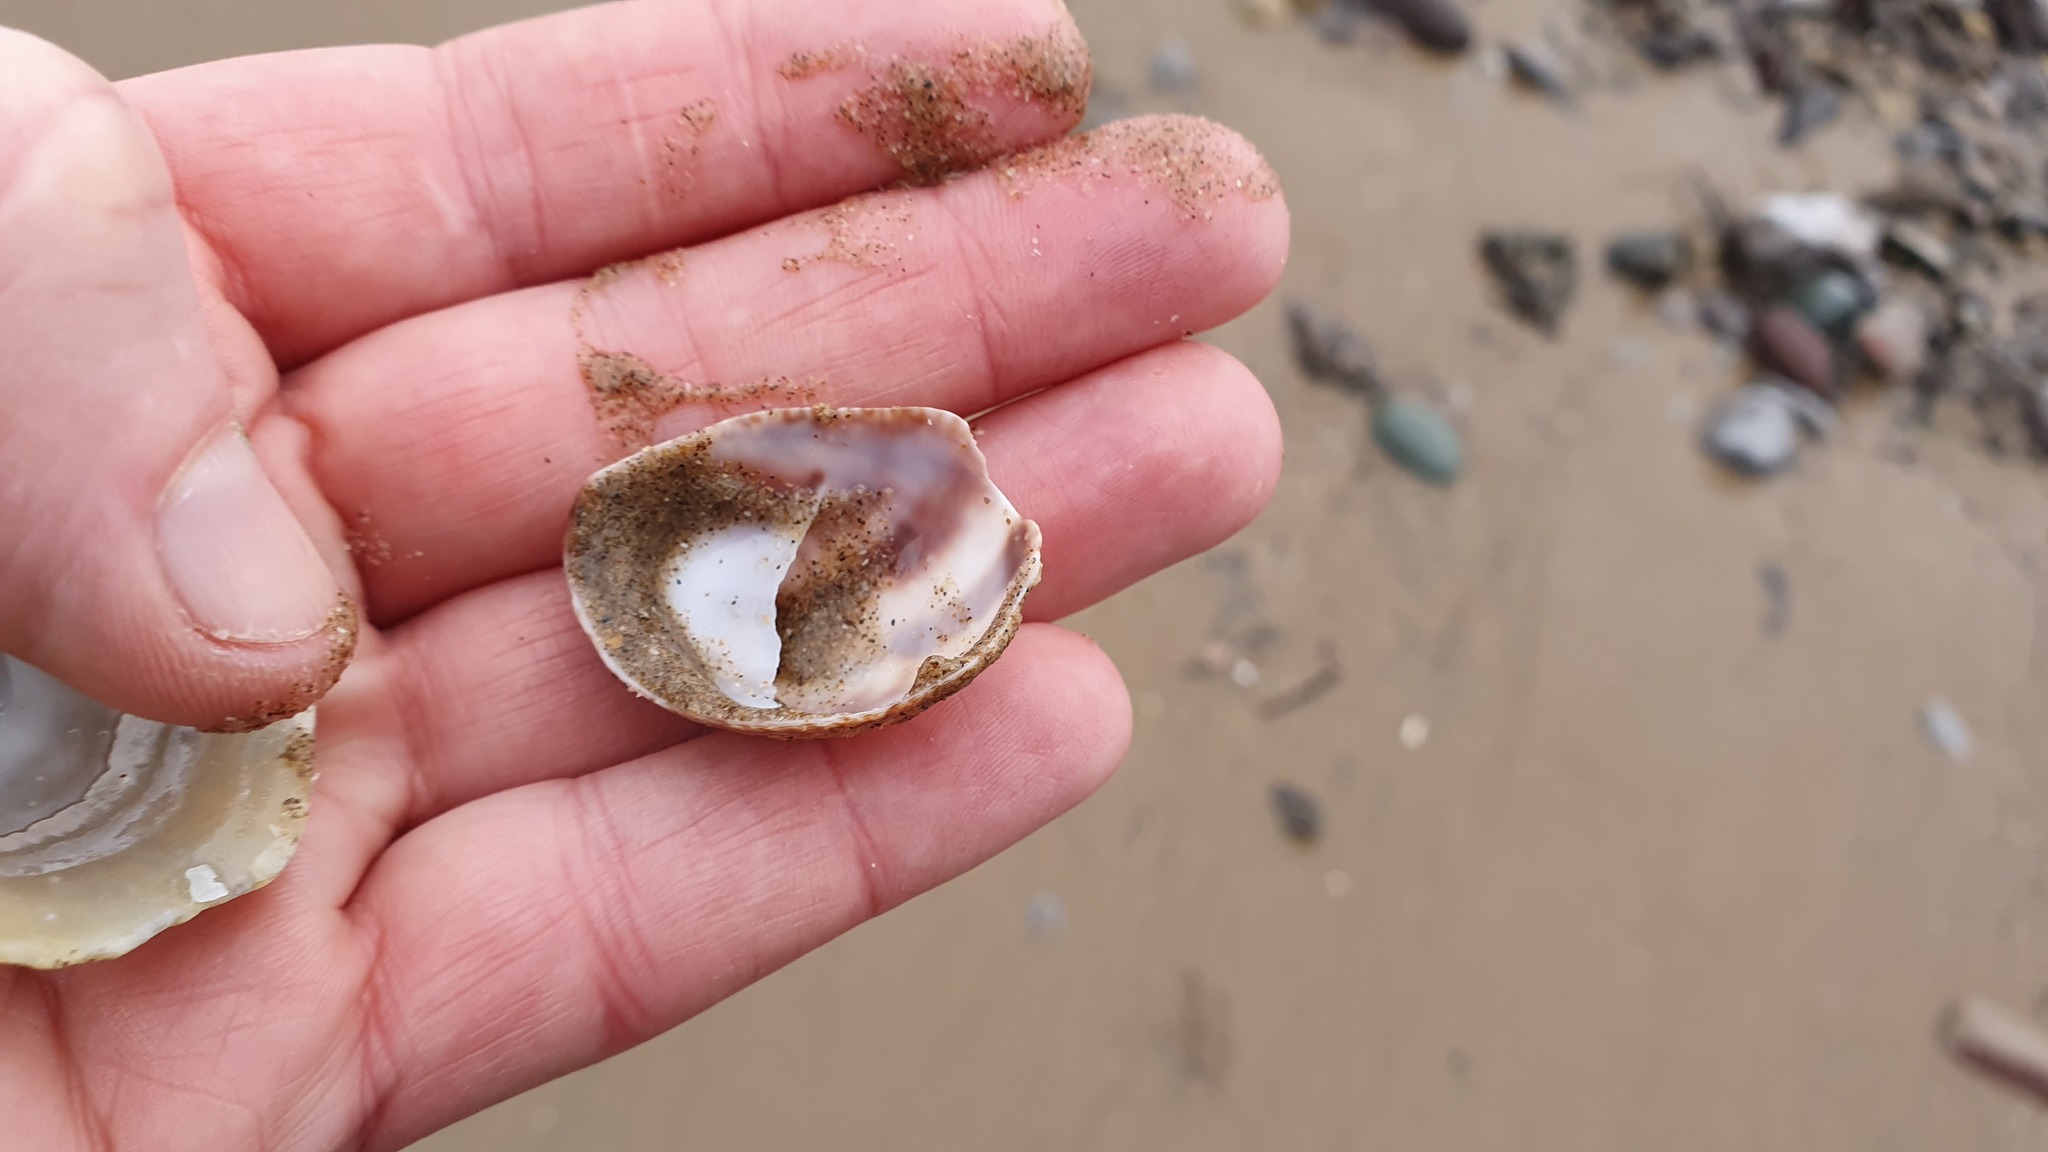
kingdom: Animalia
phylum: Mollusca
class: Gastropoda
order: Littorinimorpha
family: Calyptraeidae
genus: Crepidula
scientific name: Crepidula fornicata
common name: Slipper limpet
